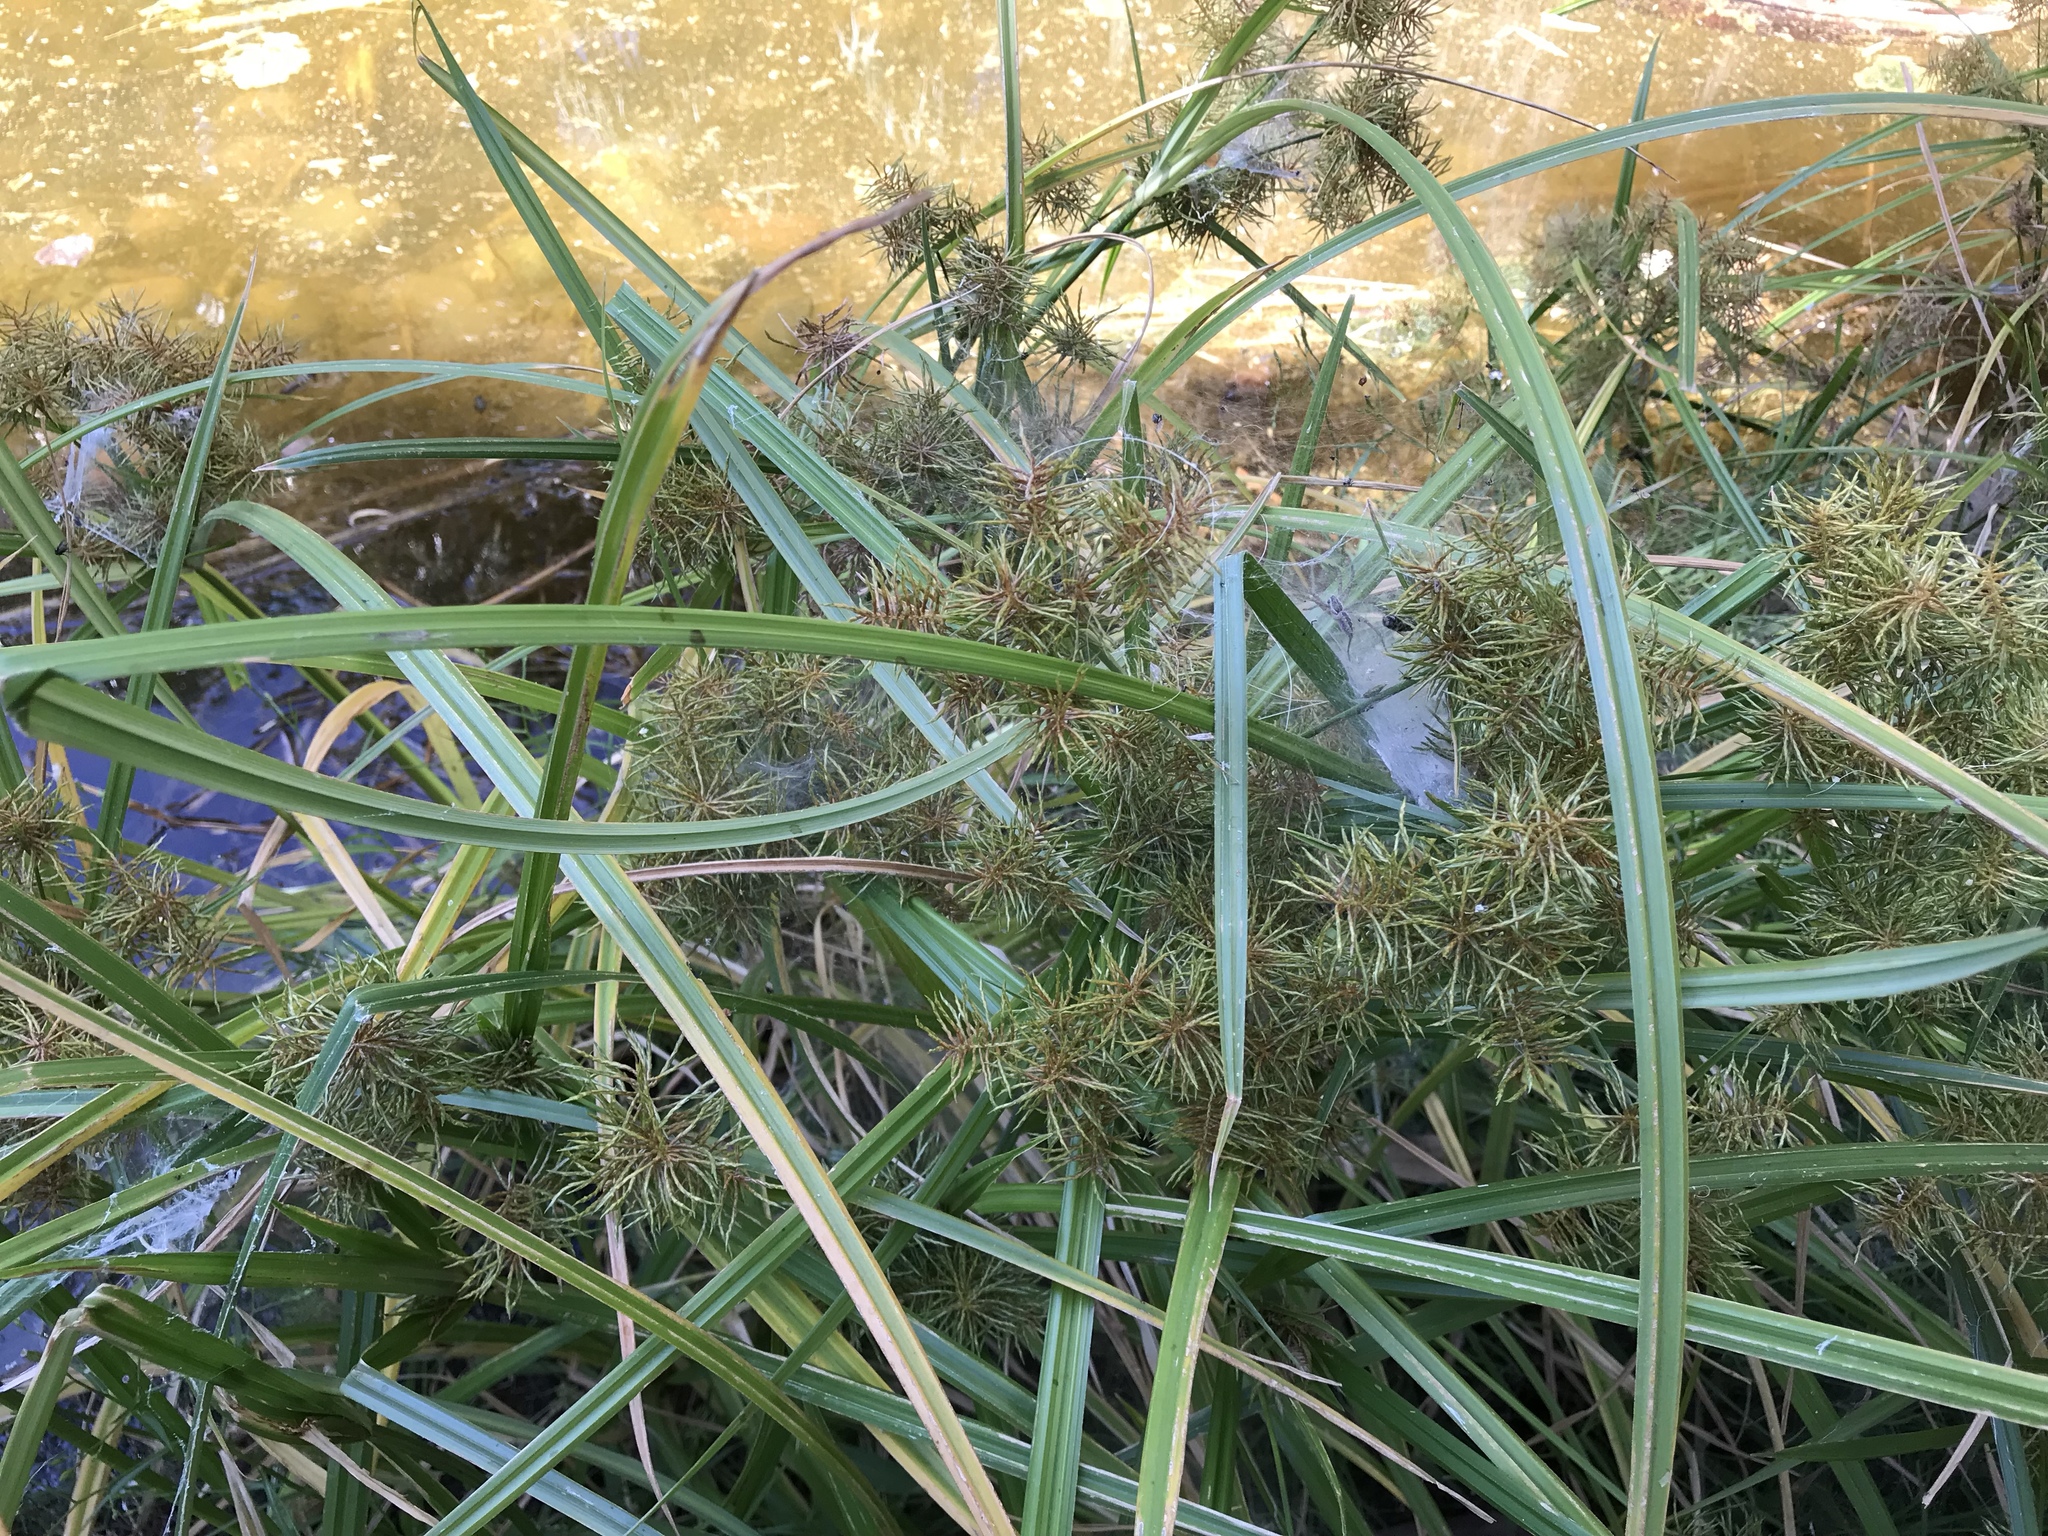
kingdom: Plantae
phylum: Tracheophyta
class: Liliopsida
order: Poales
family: Cyperaceae
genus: Cyperus
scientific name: Cyperus odoratus
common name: Fragrant flatsedge
